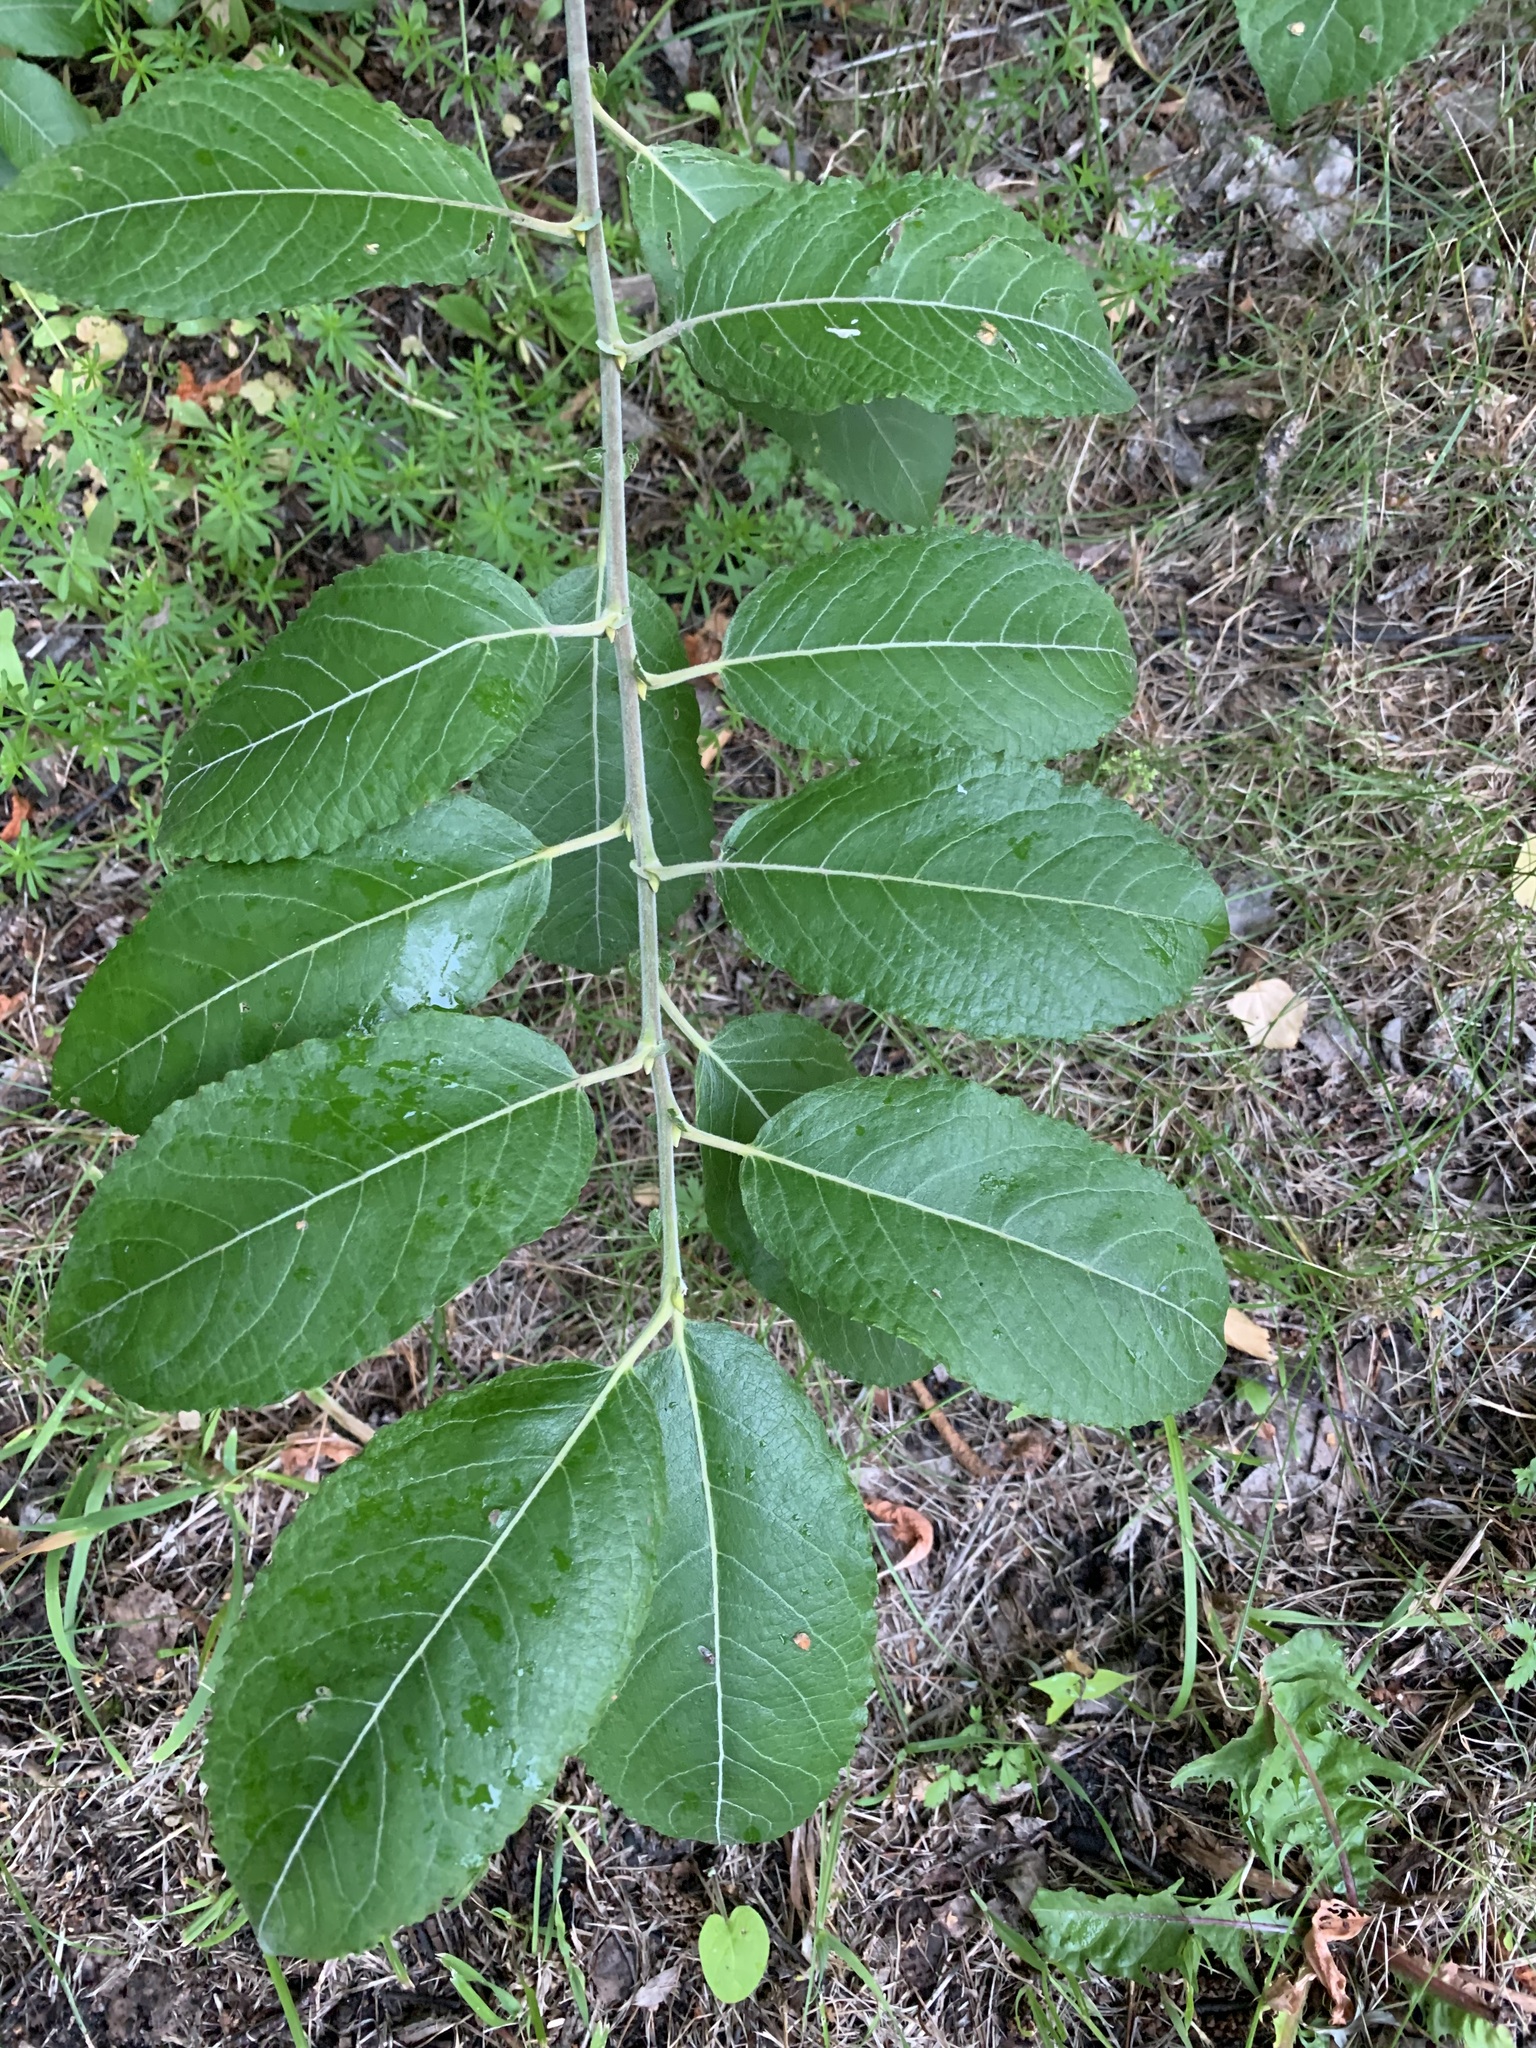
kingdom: Plantae
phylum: Tracheophyta
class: Magnoliopsida
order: Malpighiales
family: Salicaceae
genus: Salix
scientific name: Salix caprea
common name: Goat willow
